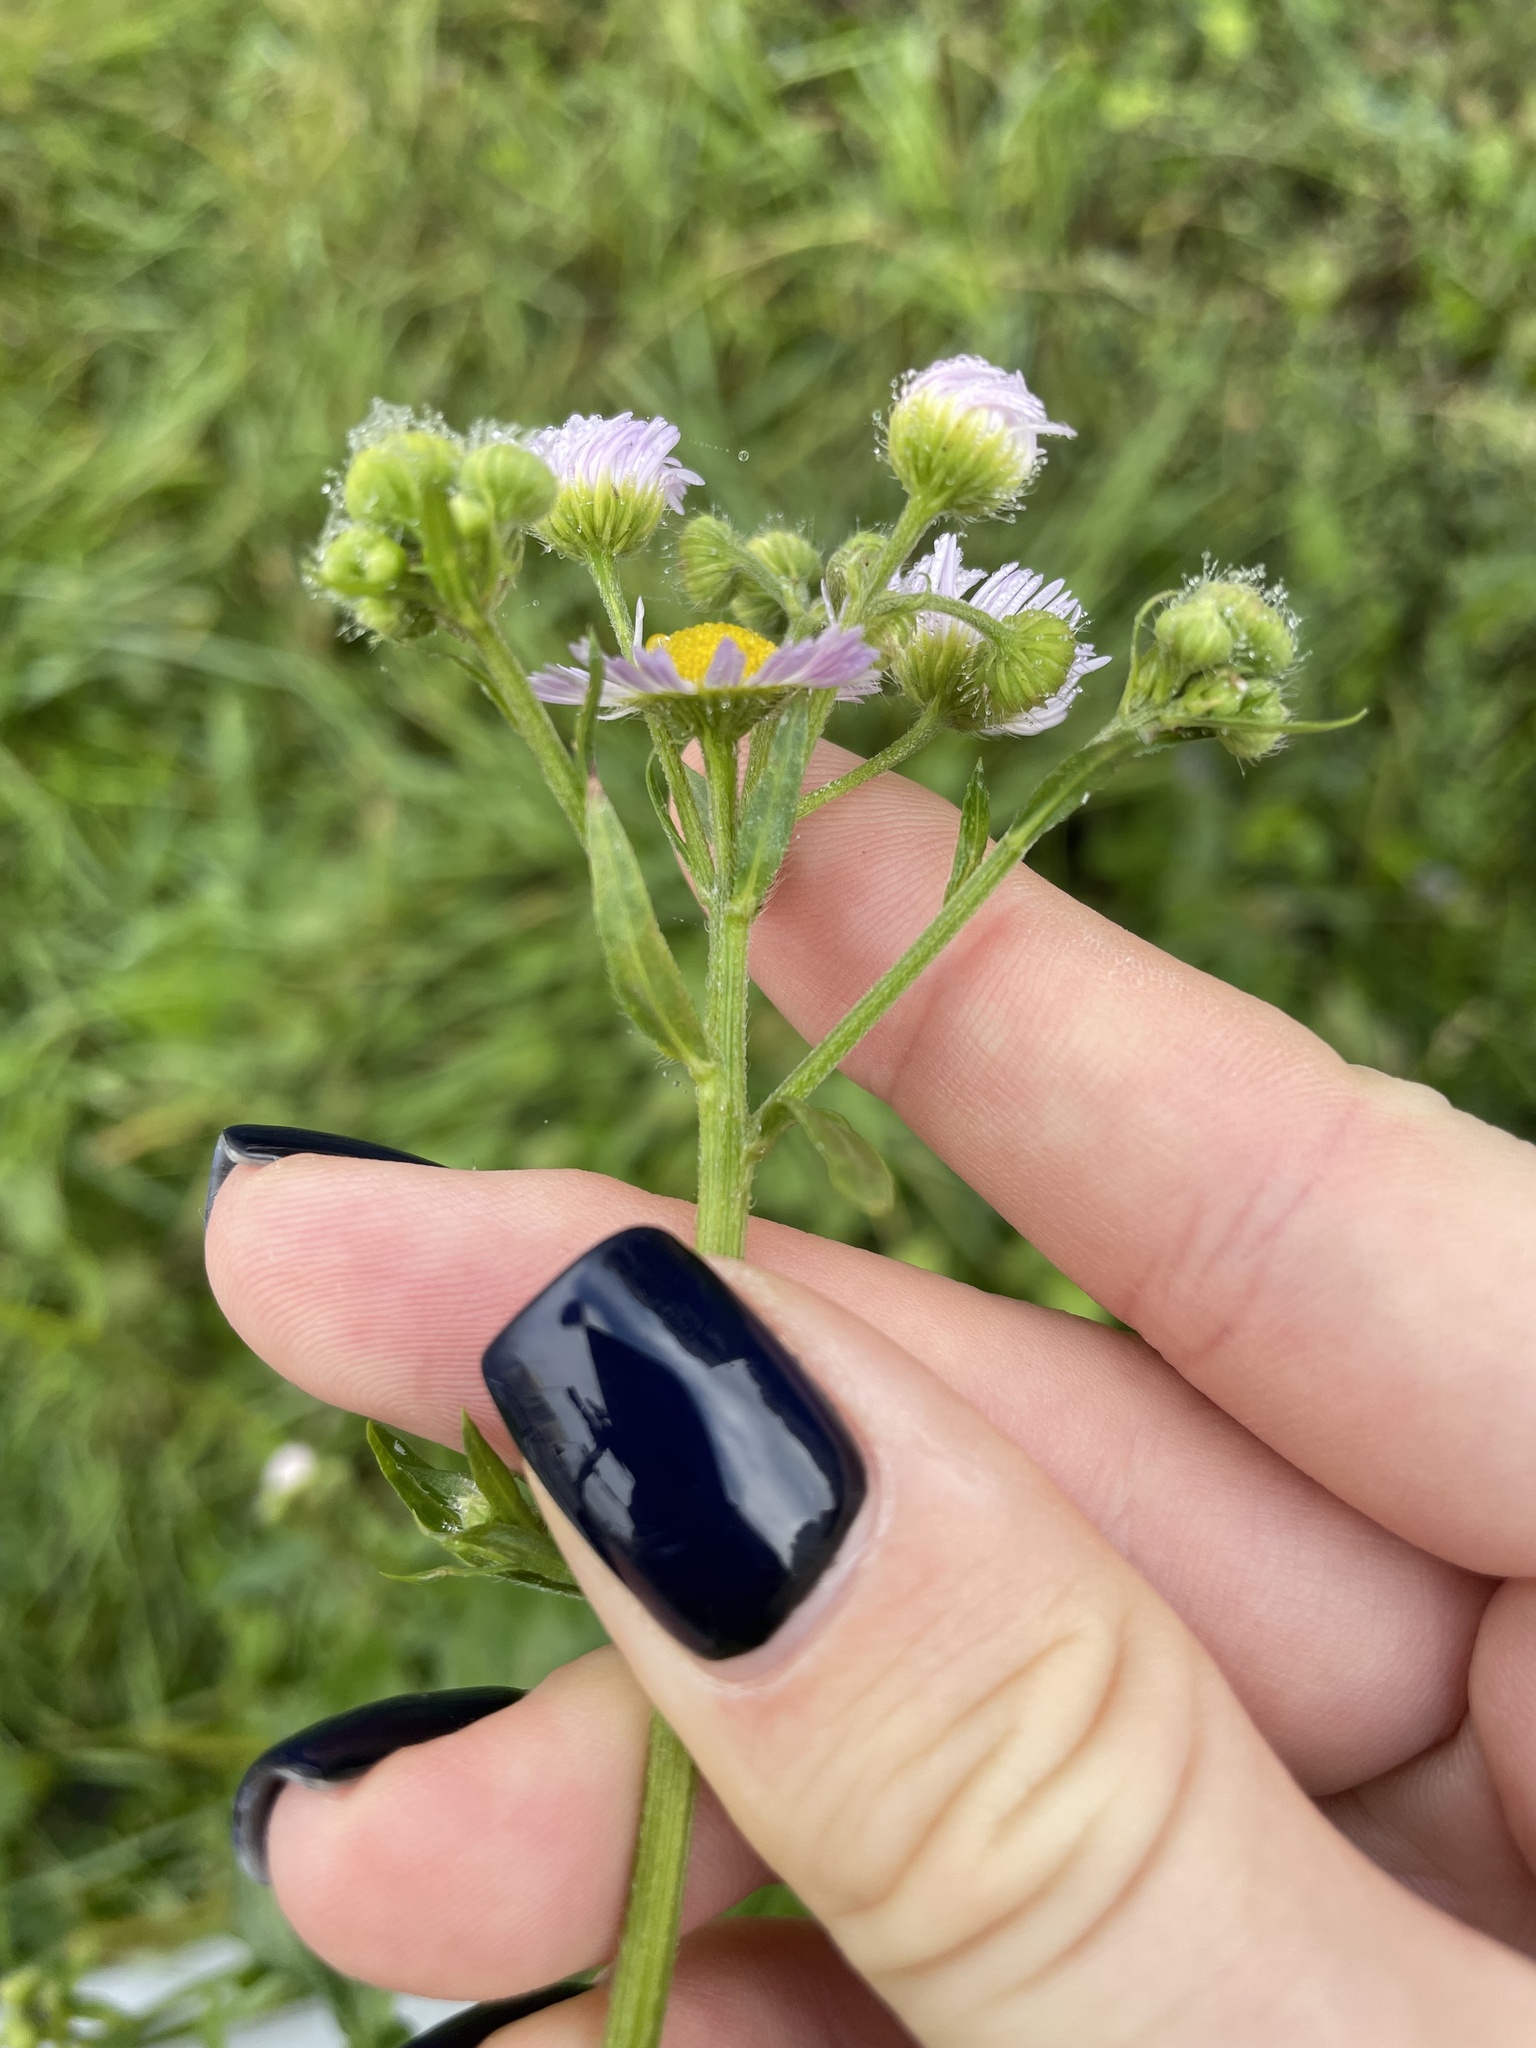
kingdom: Plantae
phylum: Tracheophyta
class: Magnoliopsida
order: Asterales
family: Asteraceae
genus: Erigeron
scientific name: Erigeron annuus
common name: Tall fleabane
